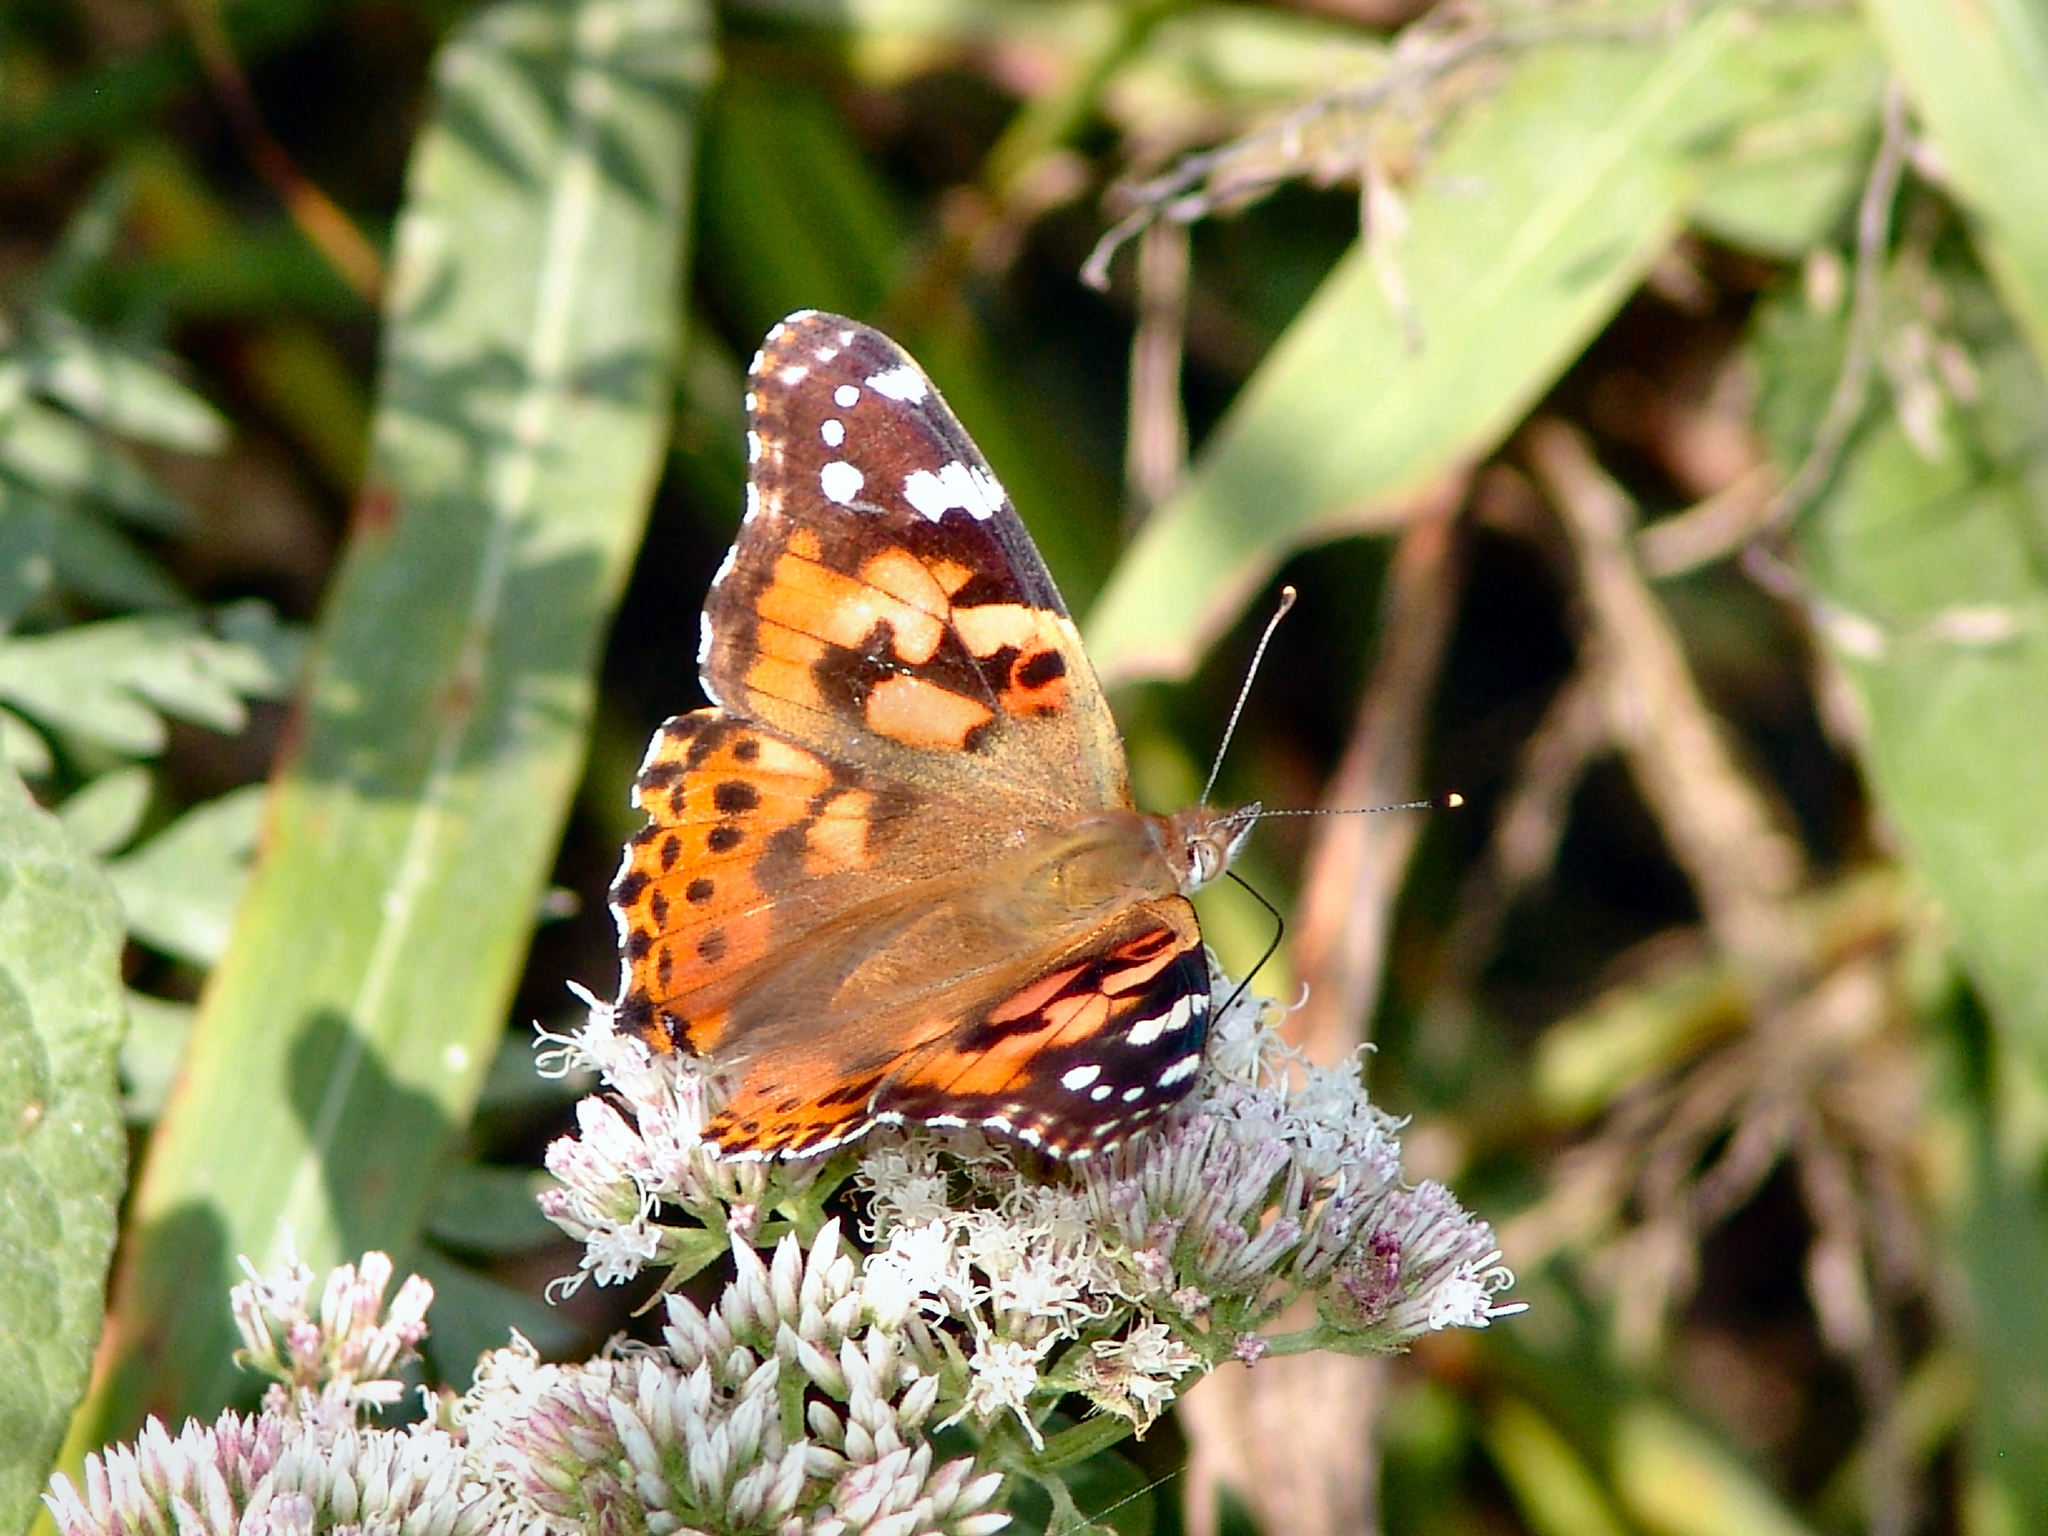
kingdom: Animalia
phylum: Arthropoda
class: Insecta
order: Lepidoptera
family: Nymphalidae
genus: Vanessa
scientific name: Vanessa cardui
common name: Painted lady
